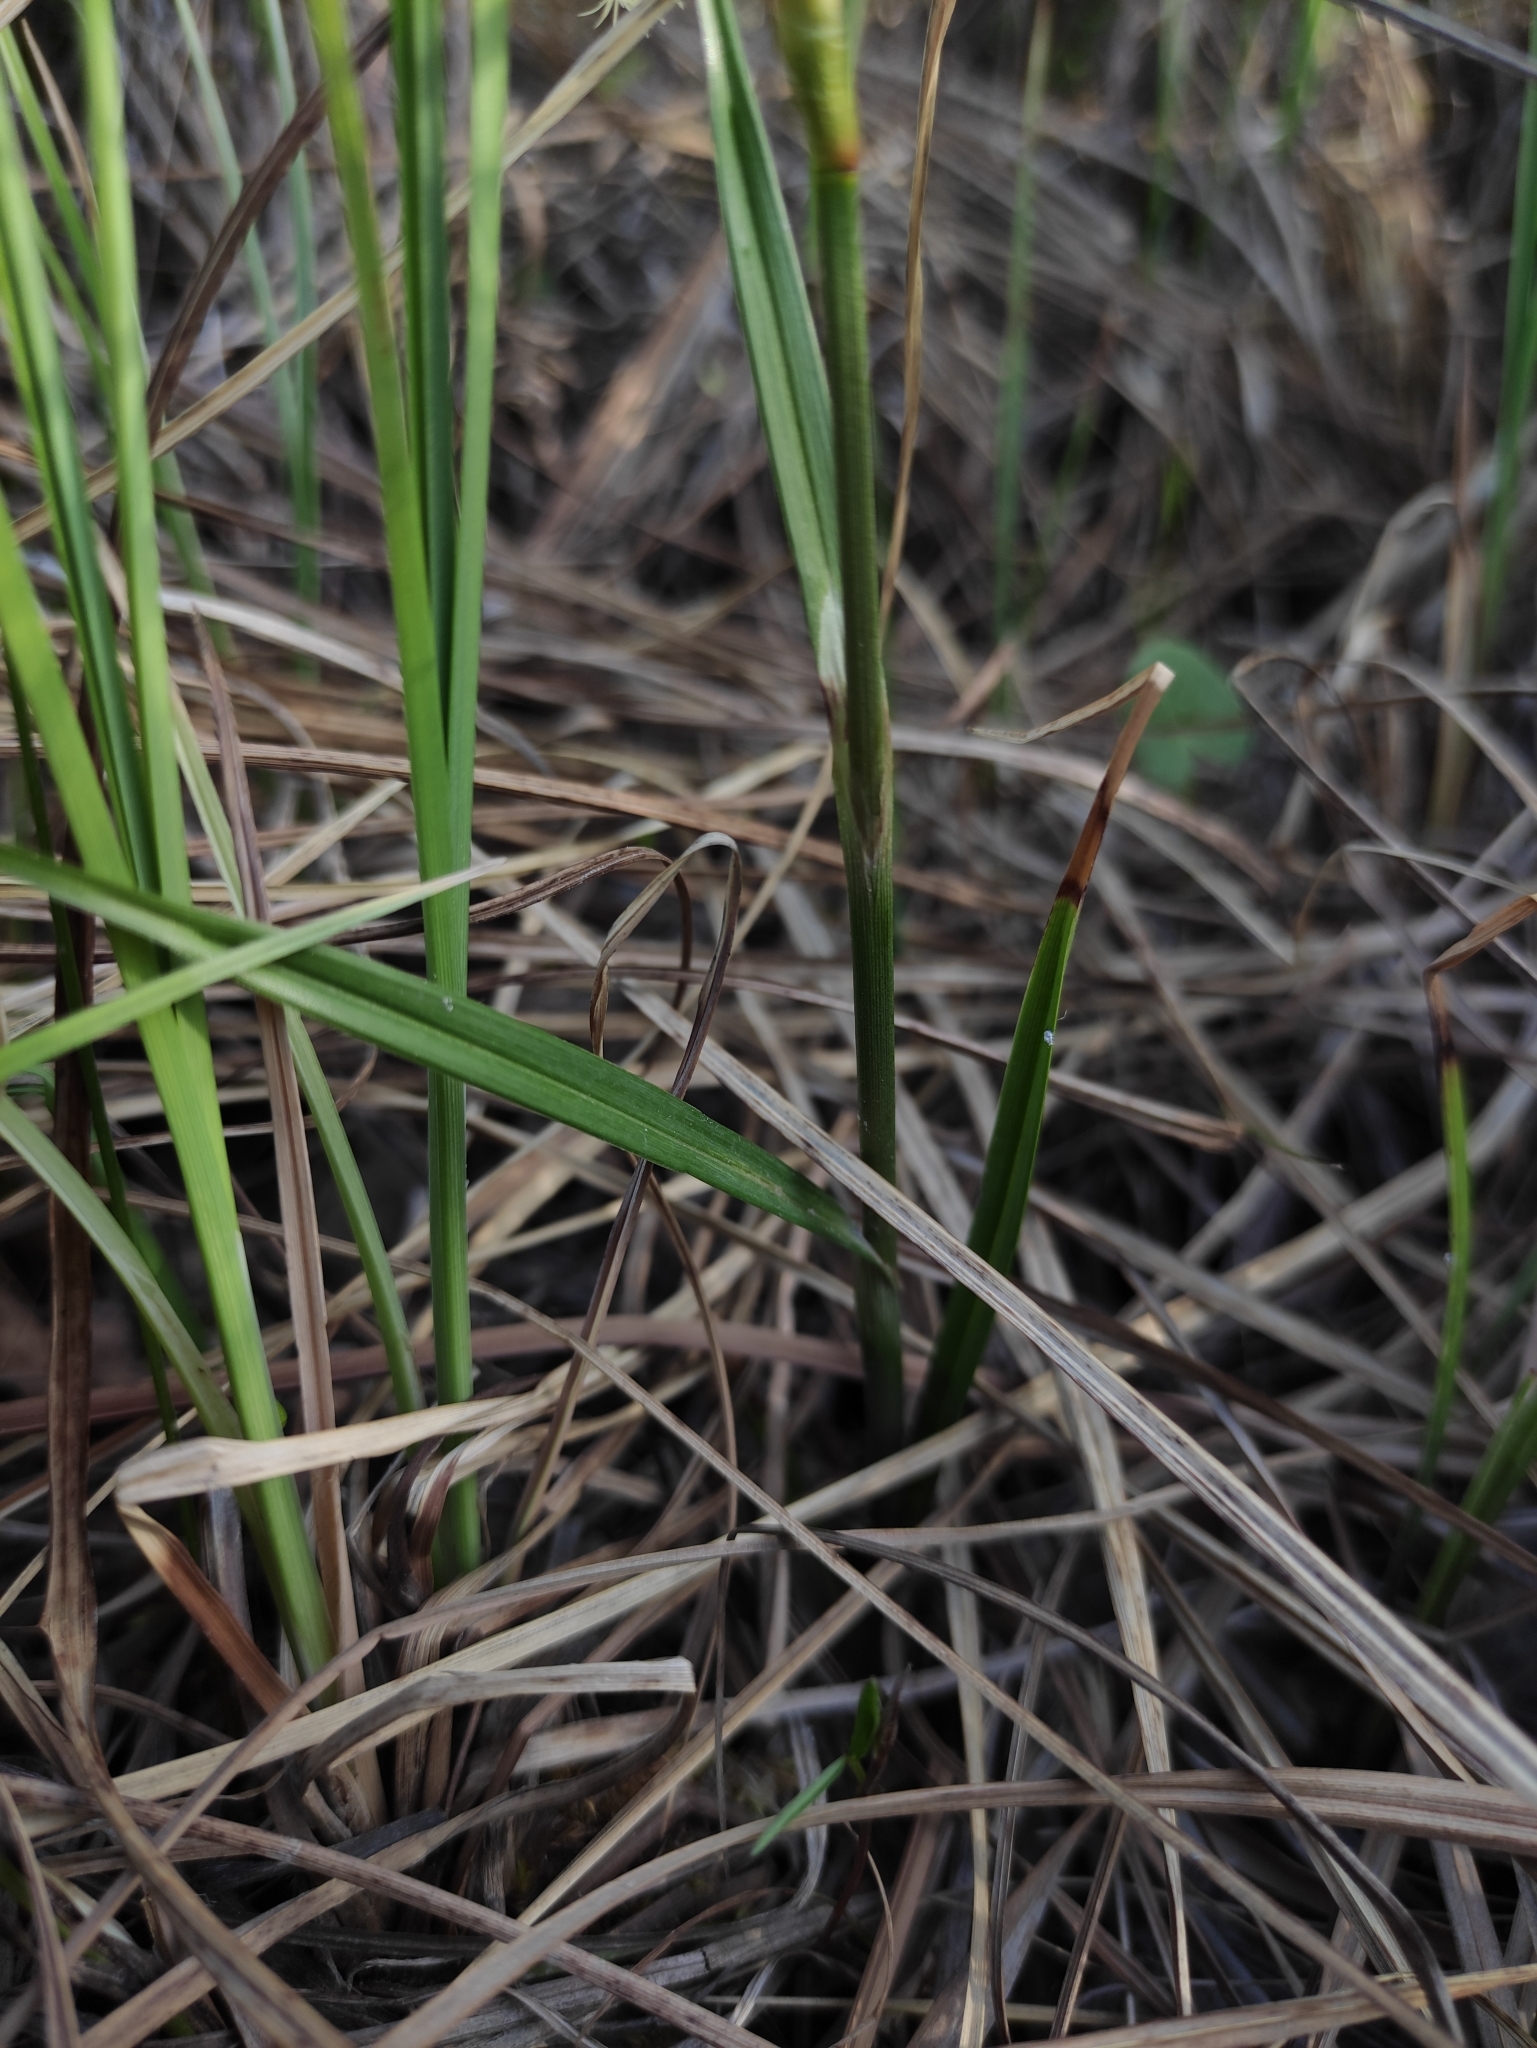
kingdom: Plantae
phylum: Tracheophyta
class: Liliopsida
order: Poales
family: Cyperaceae
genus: Eriophorum
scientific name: Eriophorum angustifolium
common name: Common cottongrass
